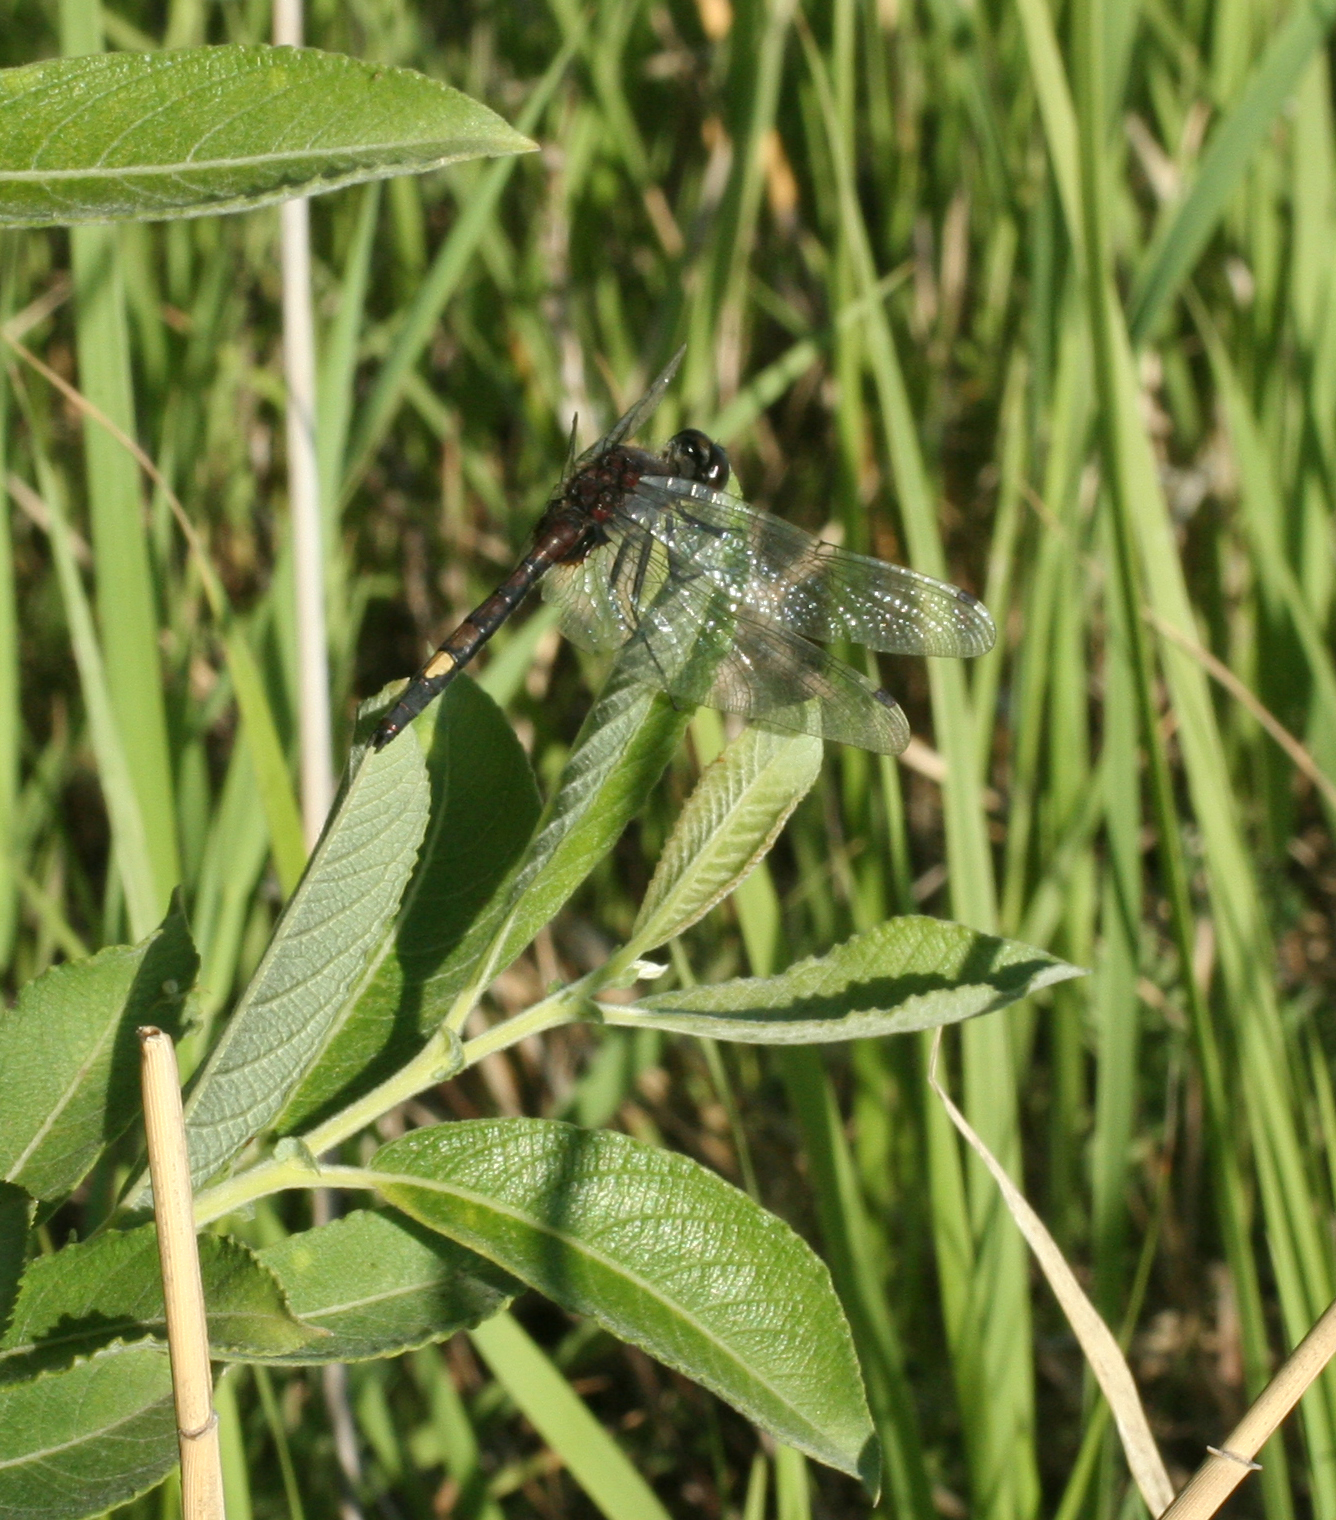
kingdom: Animalia
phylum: Arthropoda
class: Insecta
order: Odonata
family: Libellulidae
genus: Leucorrhinia
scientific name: Leucorrhinia pectoralis
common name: Yellow-spotted whiteface
